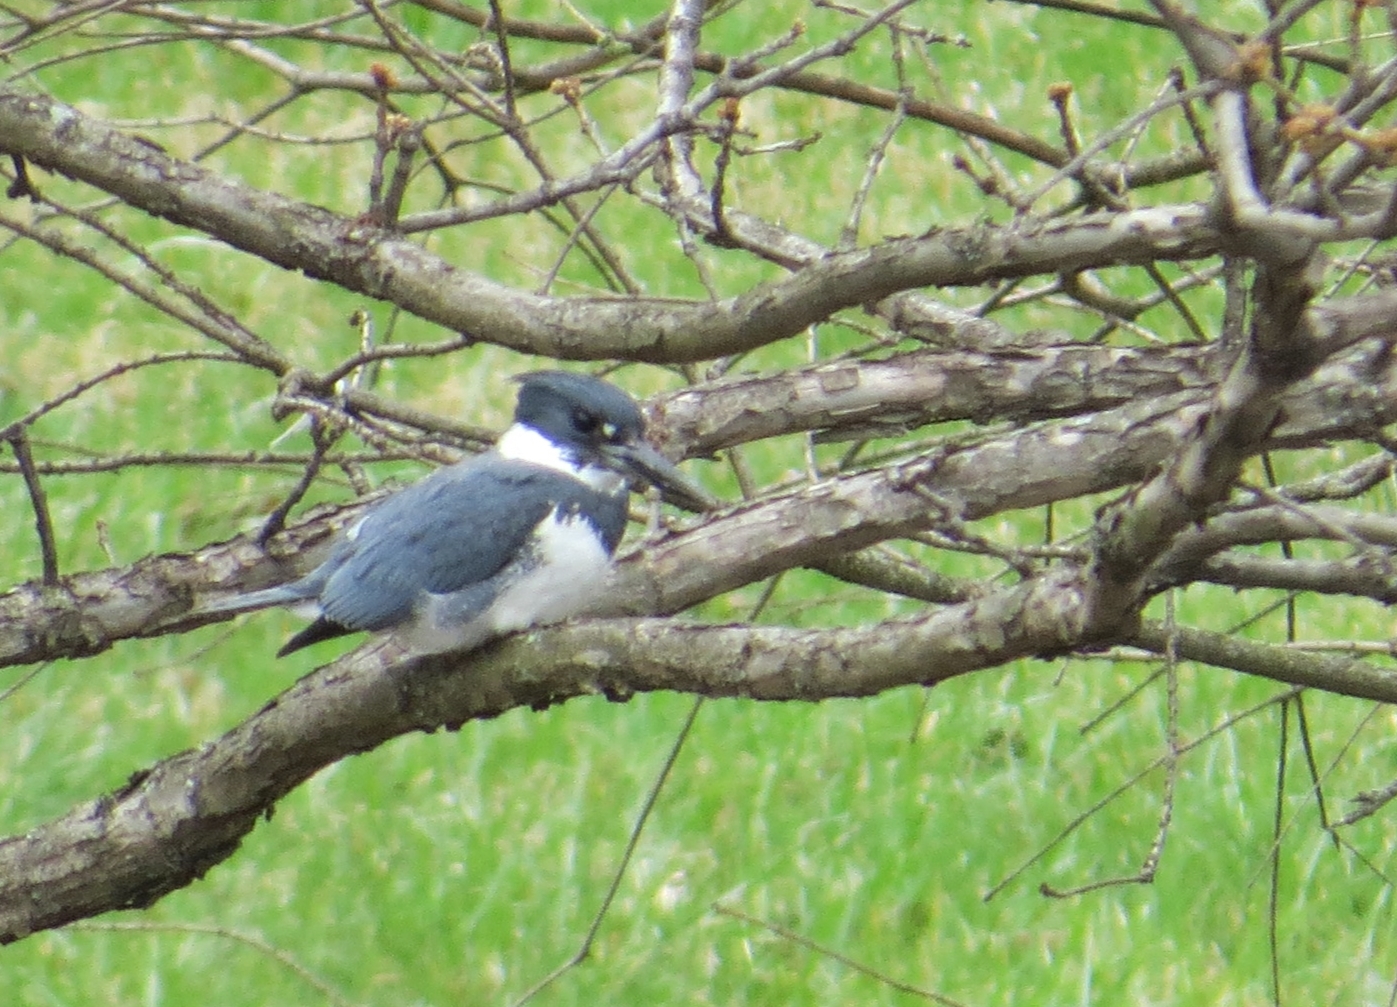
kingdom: Animalia
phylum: Chordata
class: Aves
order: Coraciiformes
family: Alcedinidae
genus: Megaceryle
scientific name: Megaceryle alcyon
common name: Belted kingfisher
